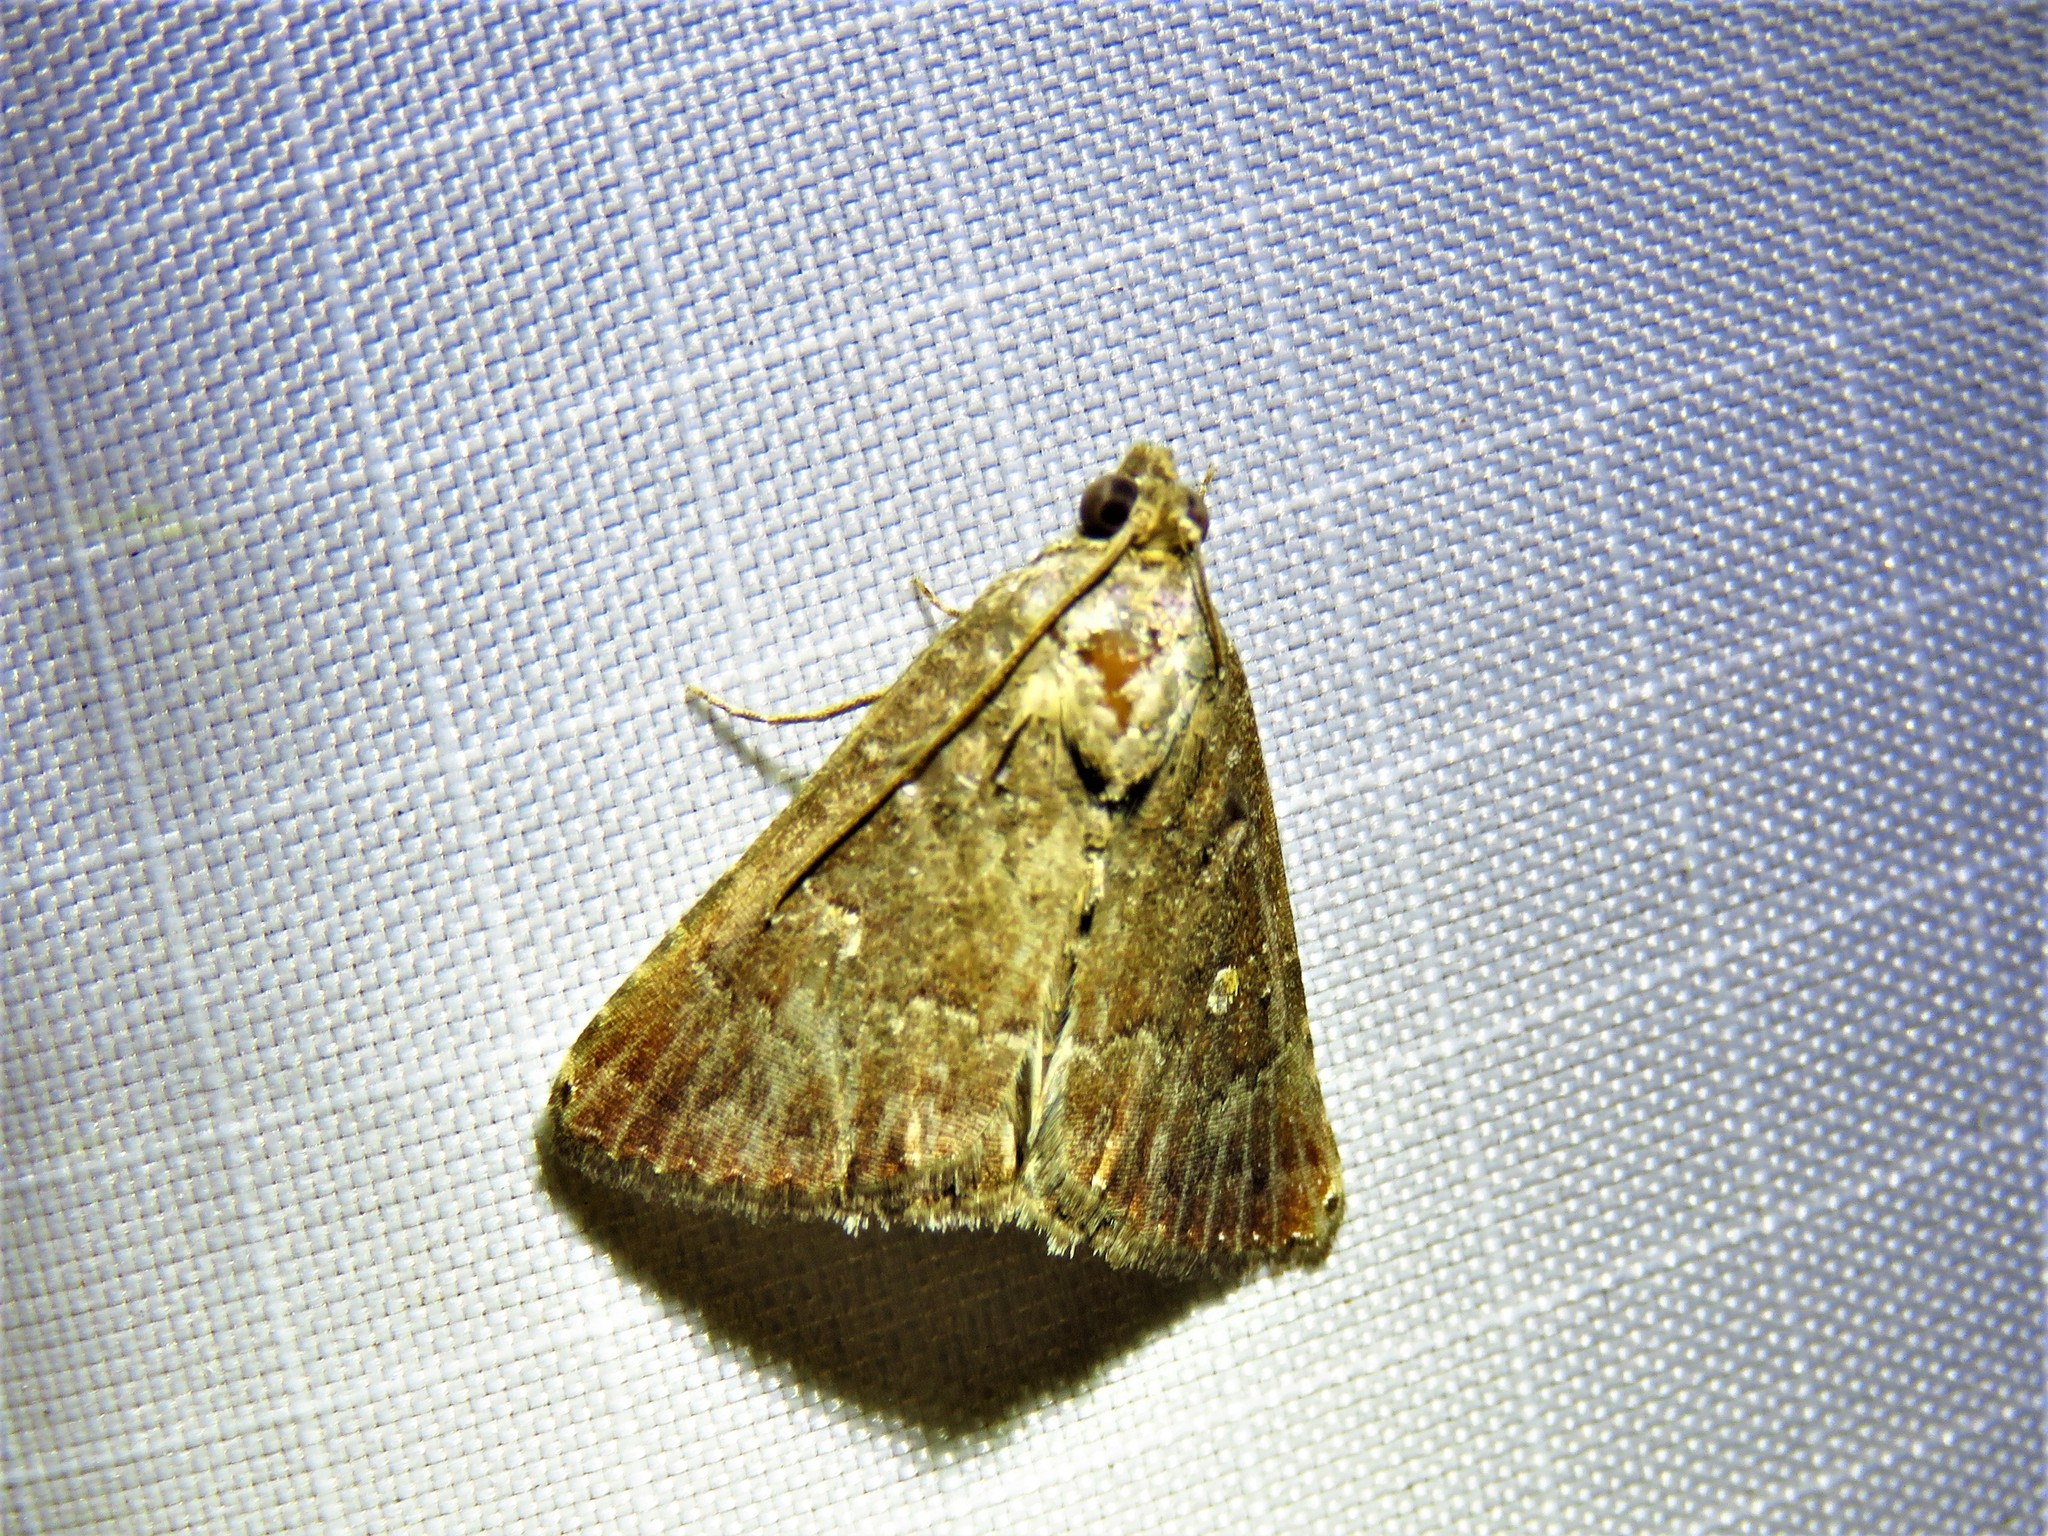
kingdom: Animalia
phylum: Arthropoda
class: Insecta
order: Lepidoptera
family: Noctuidae
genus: Amyna
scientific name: Amyna stricta
